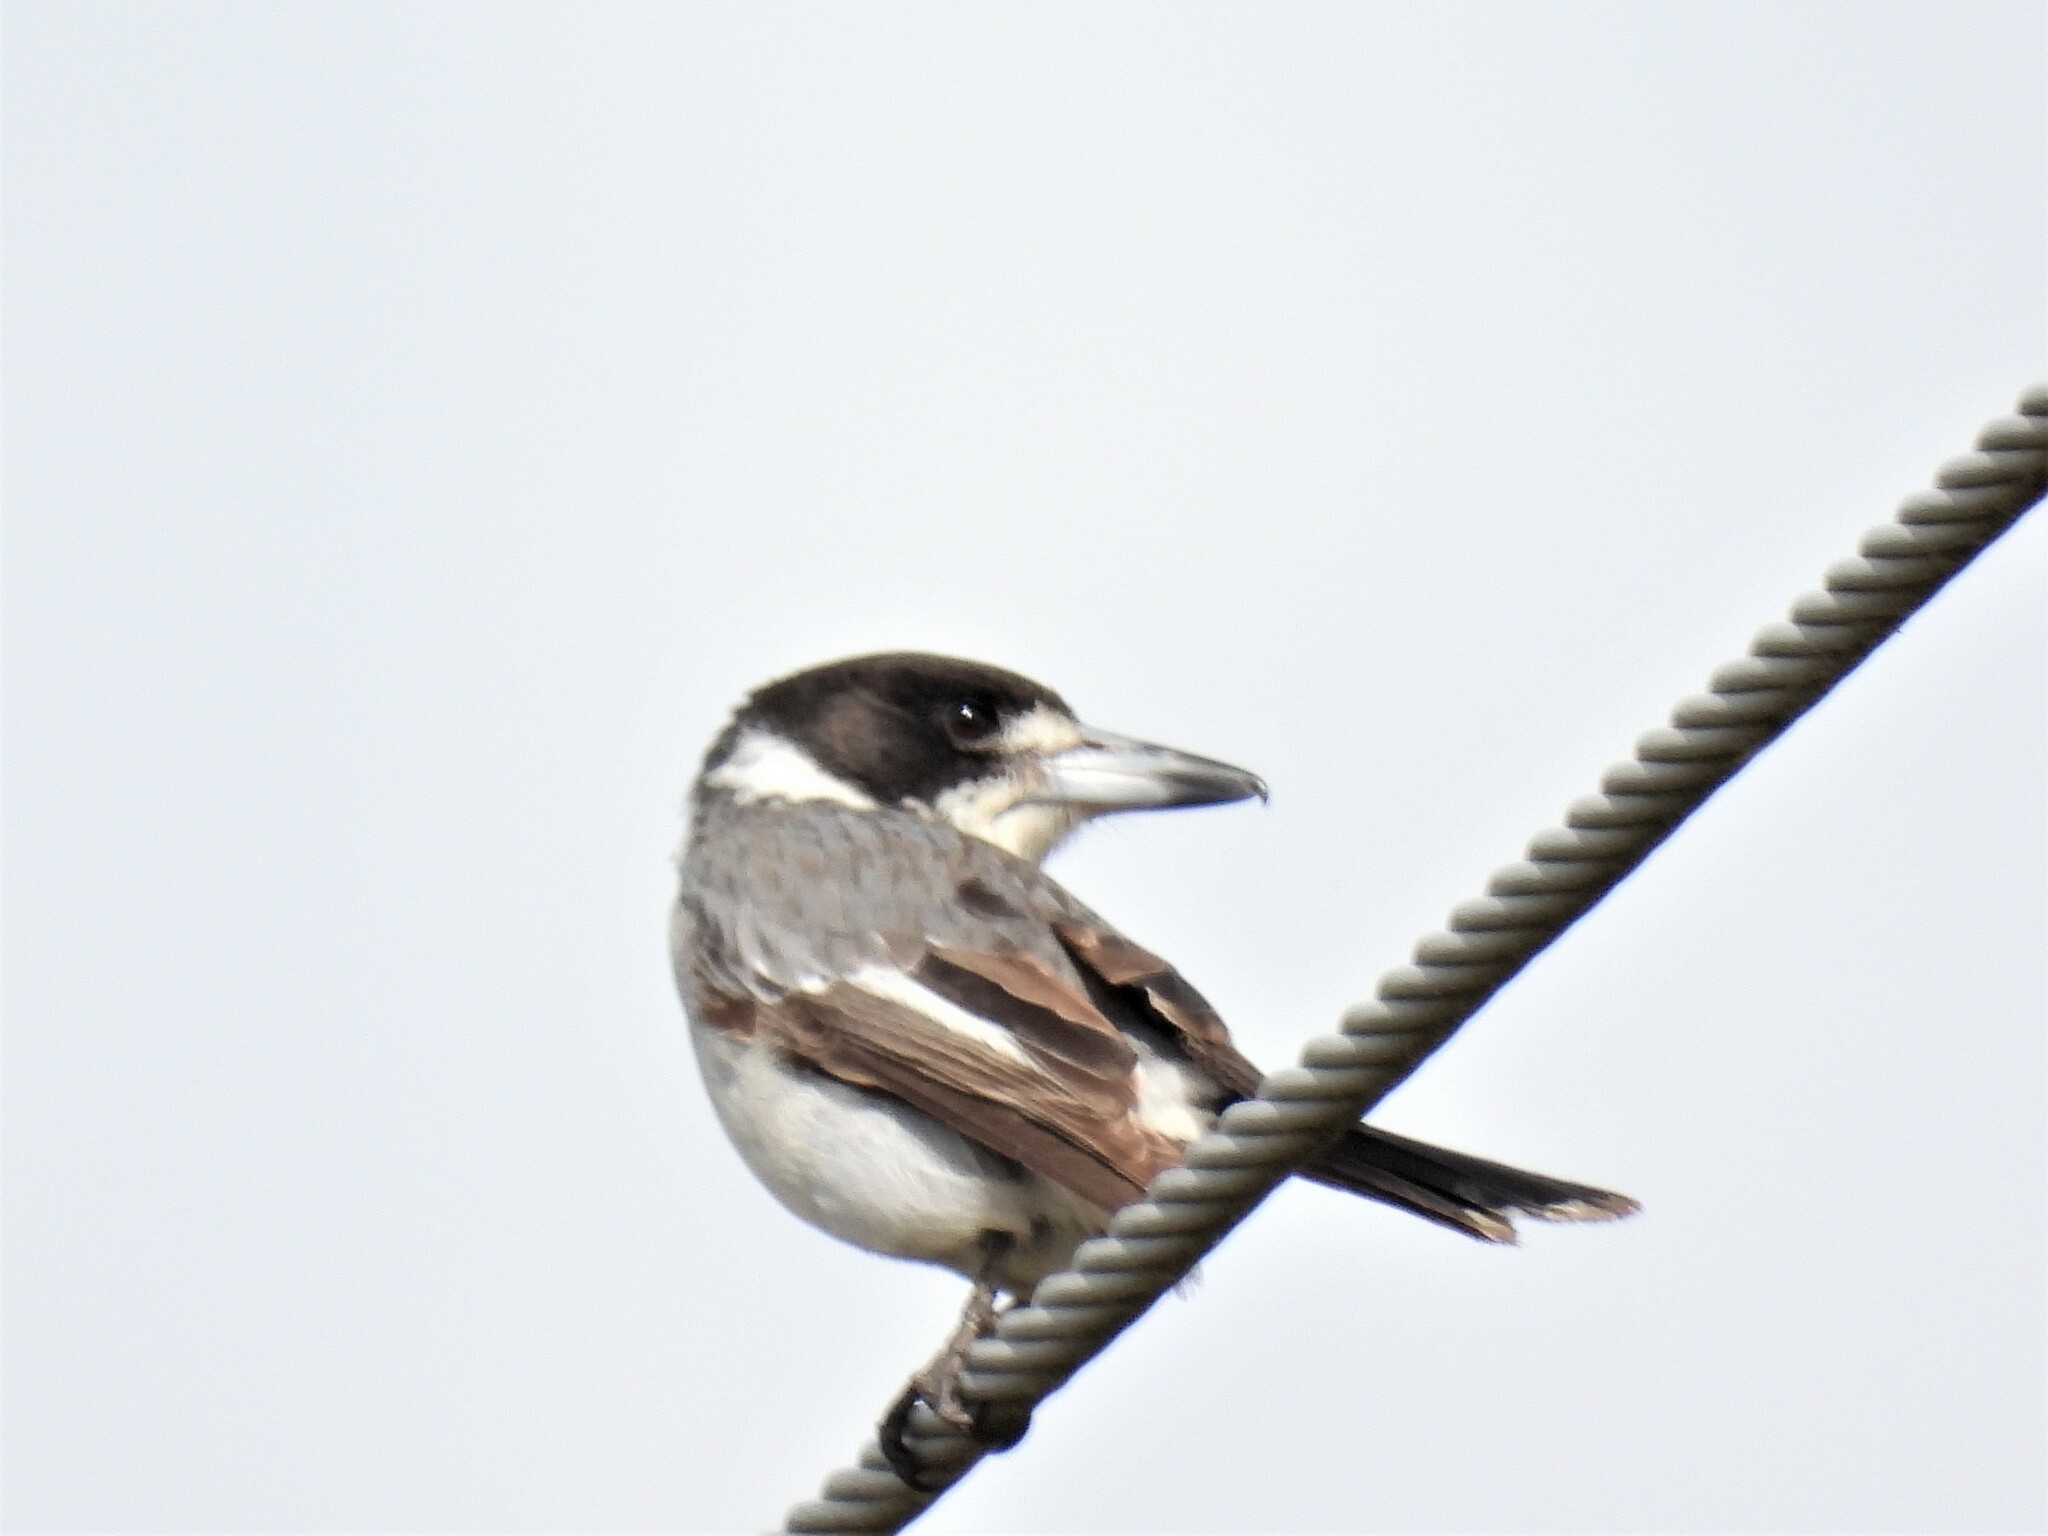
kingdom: Animalia
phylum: Chordata
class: Aves
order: Passeriformes
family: Cracticidae
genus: Cracticus
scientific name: Cracticus torquatus
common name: Grey butcherbird
